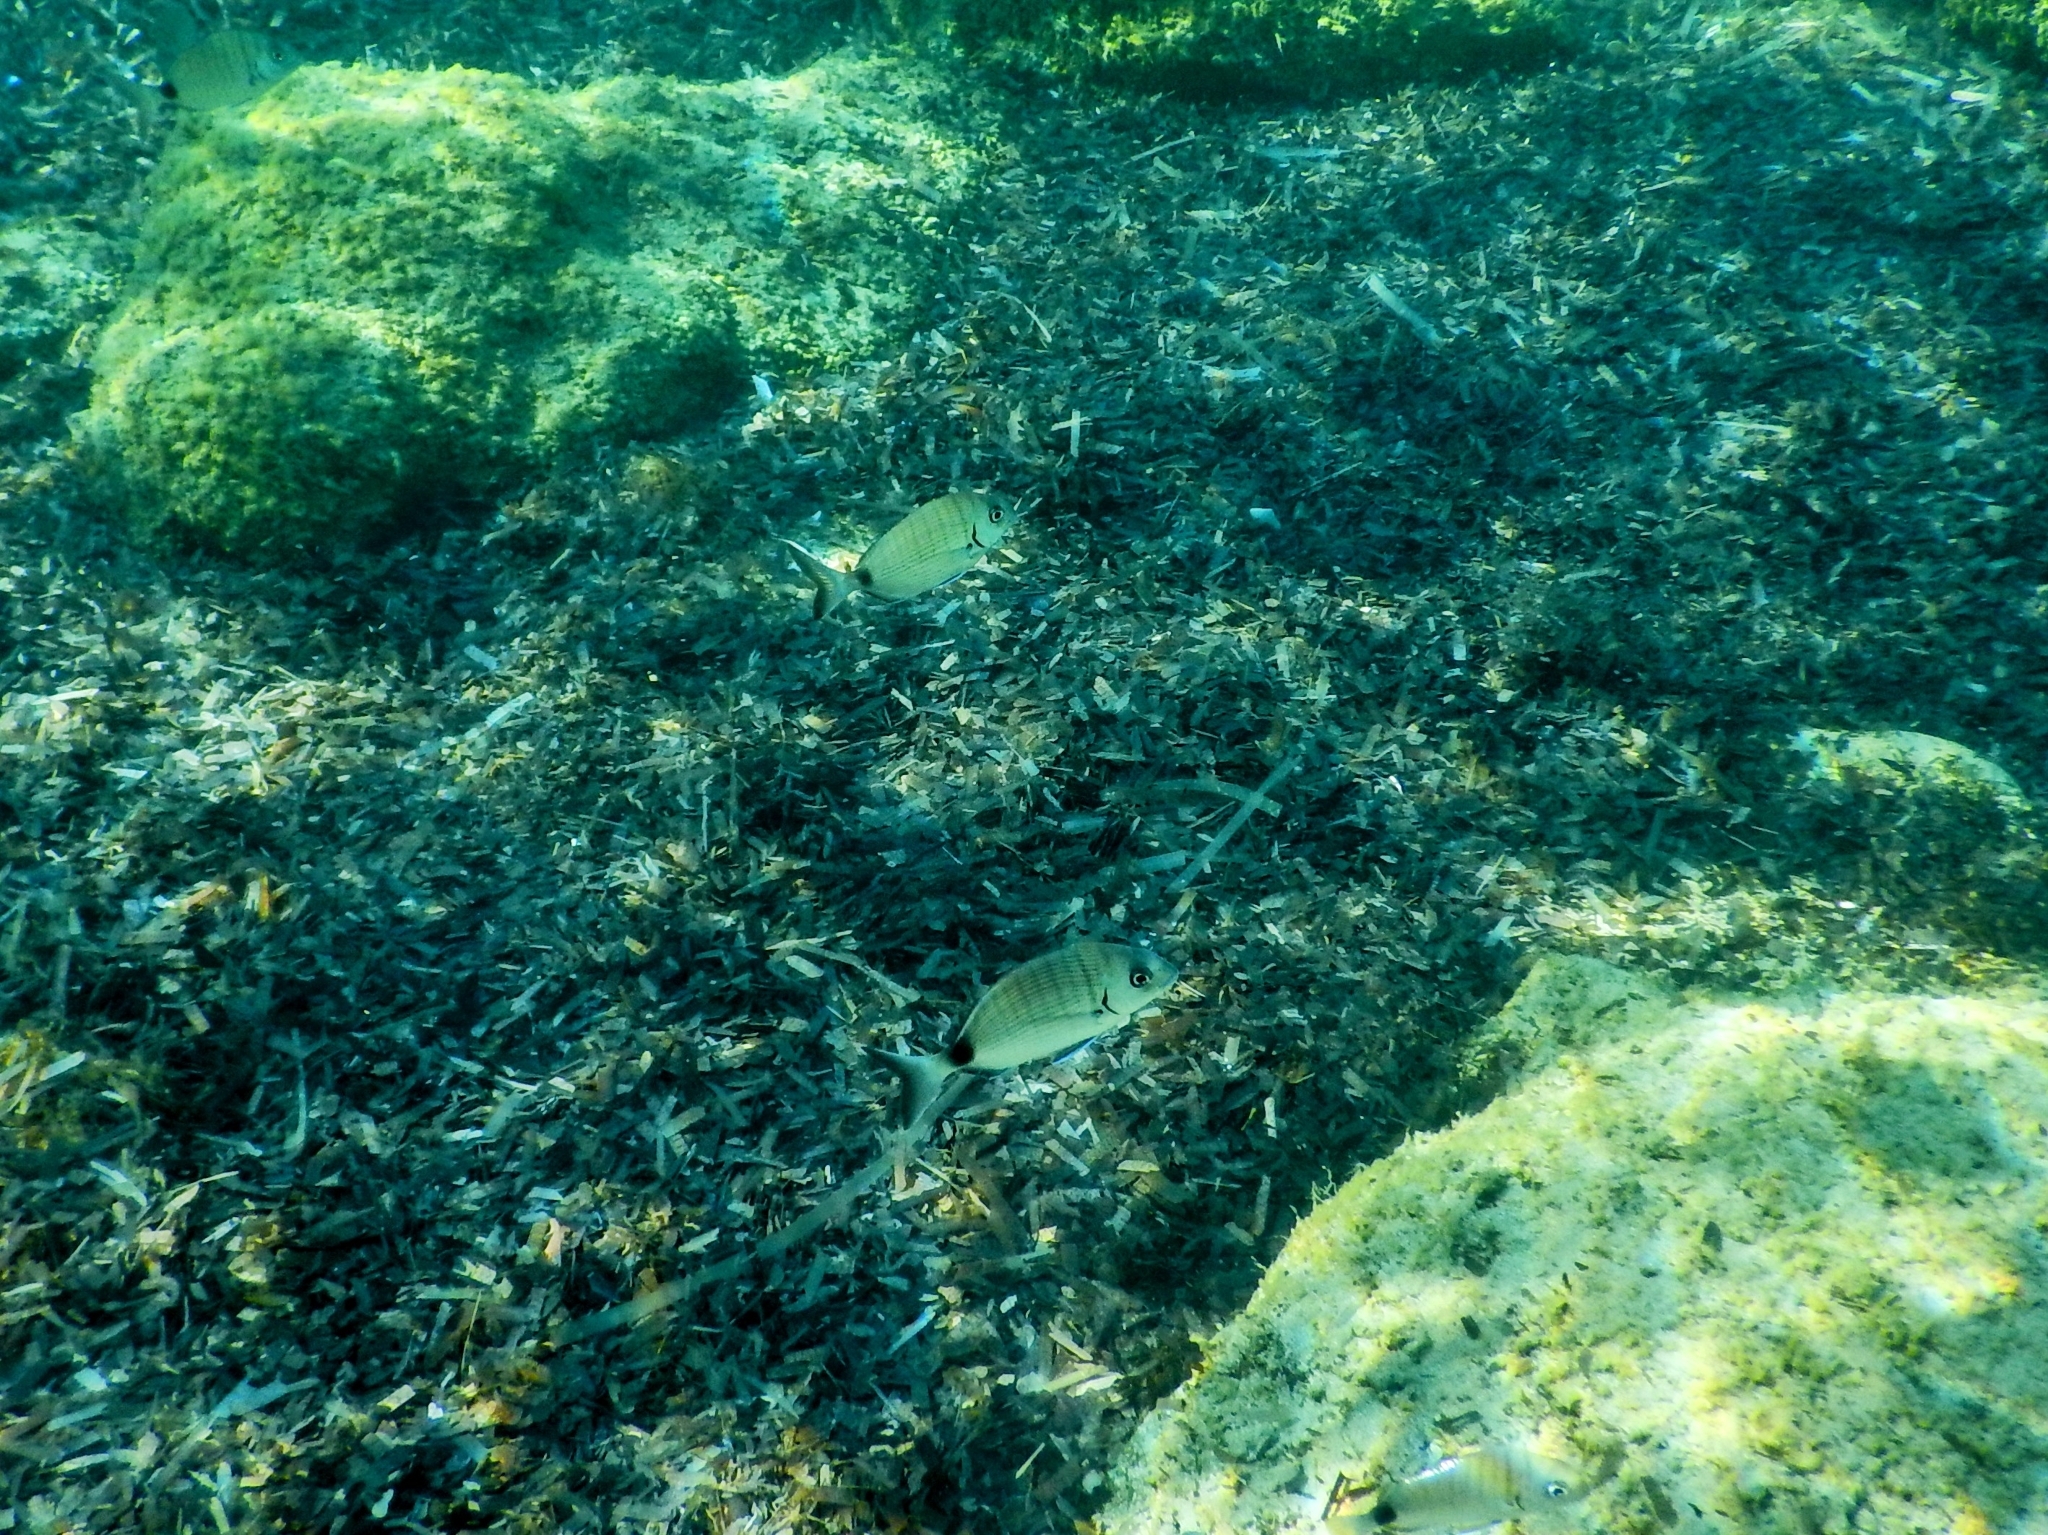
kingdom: Animalia
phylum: Chordata
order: Perciformes
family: Sparidae
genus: Diplodus
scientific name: Diplodus sargus
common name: White seabream
